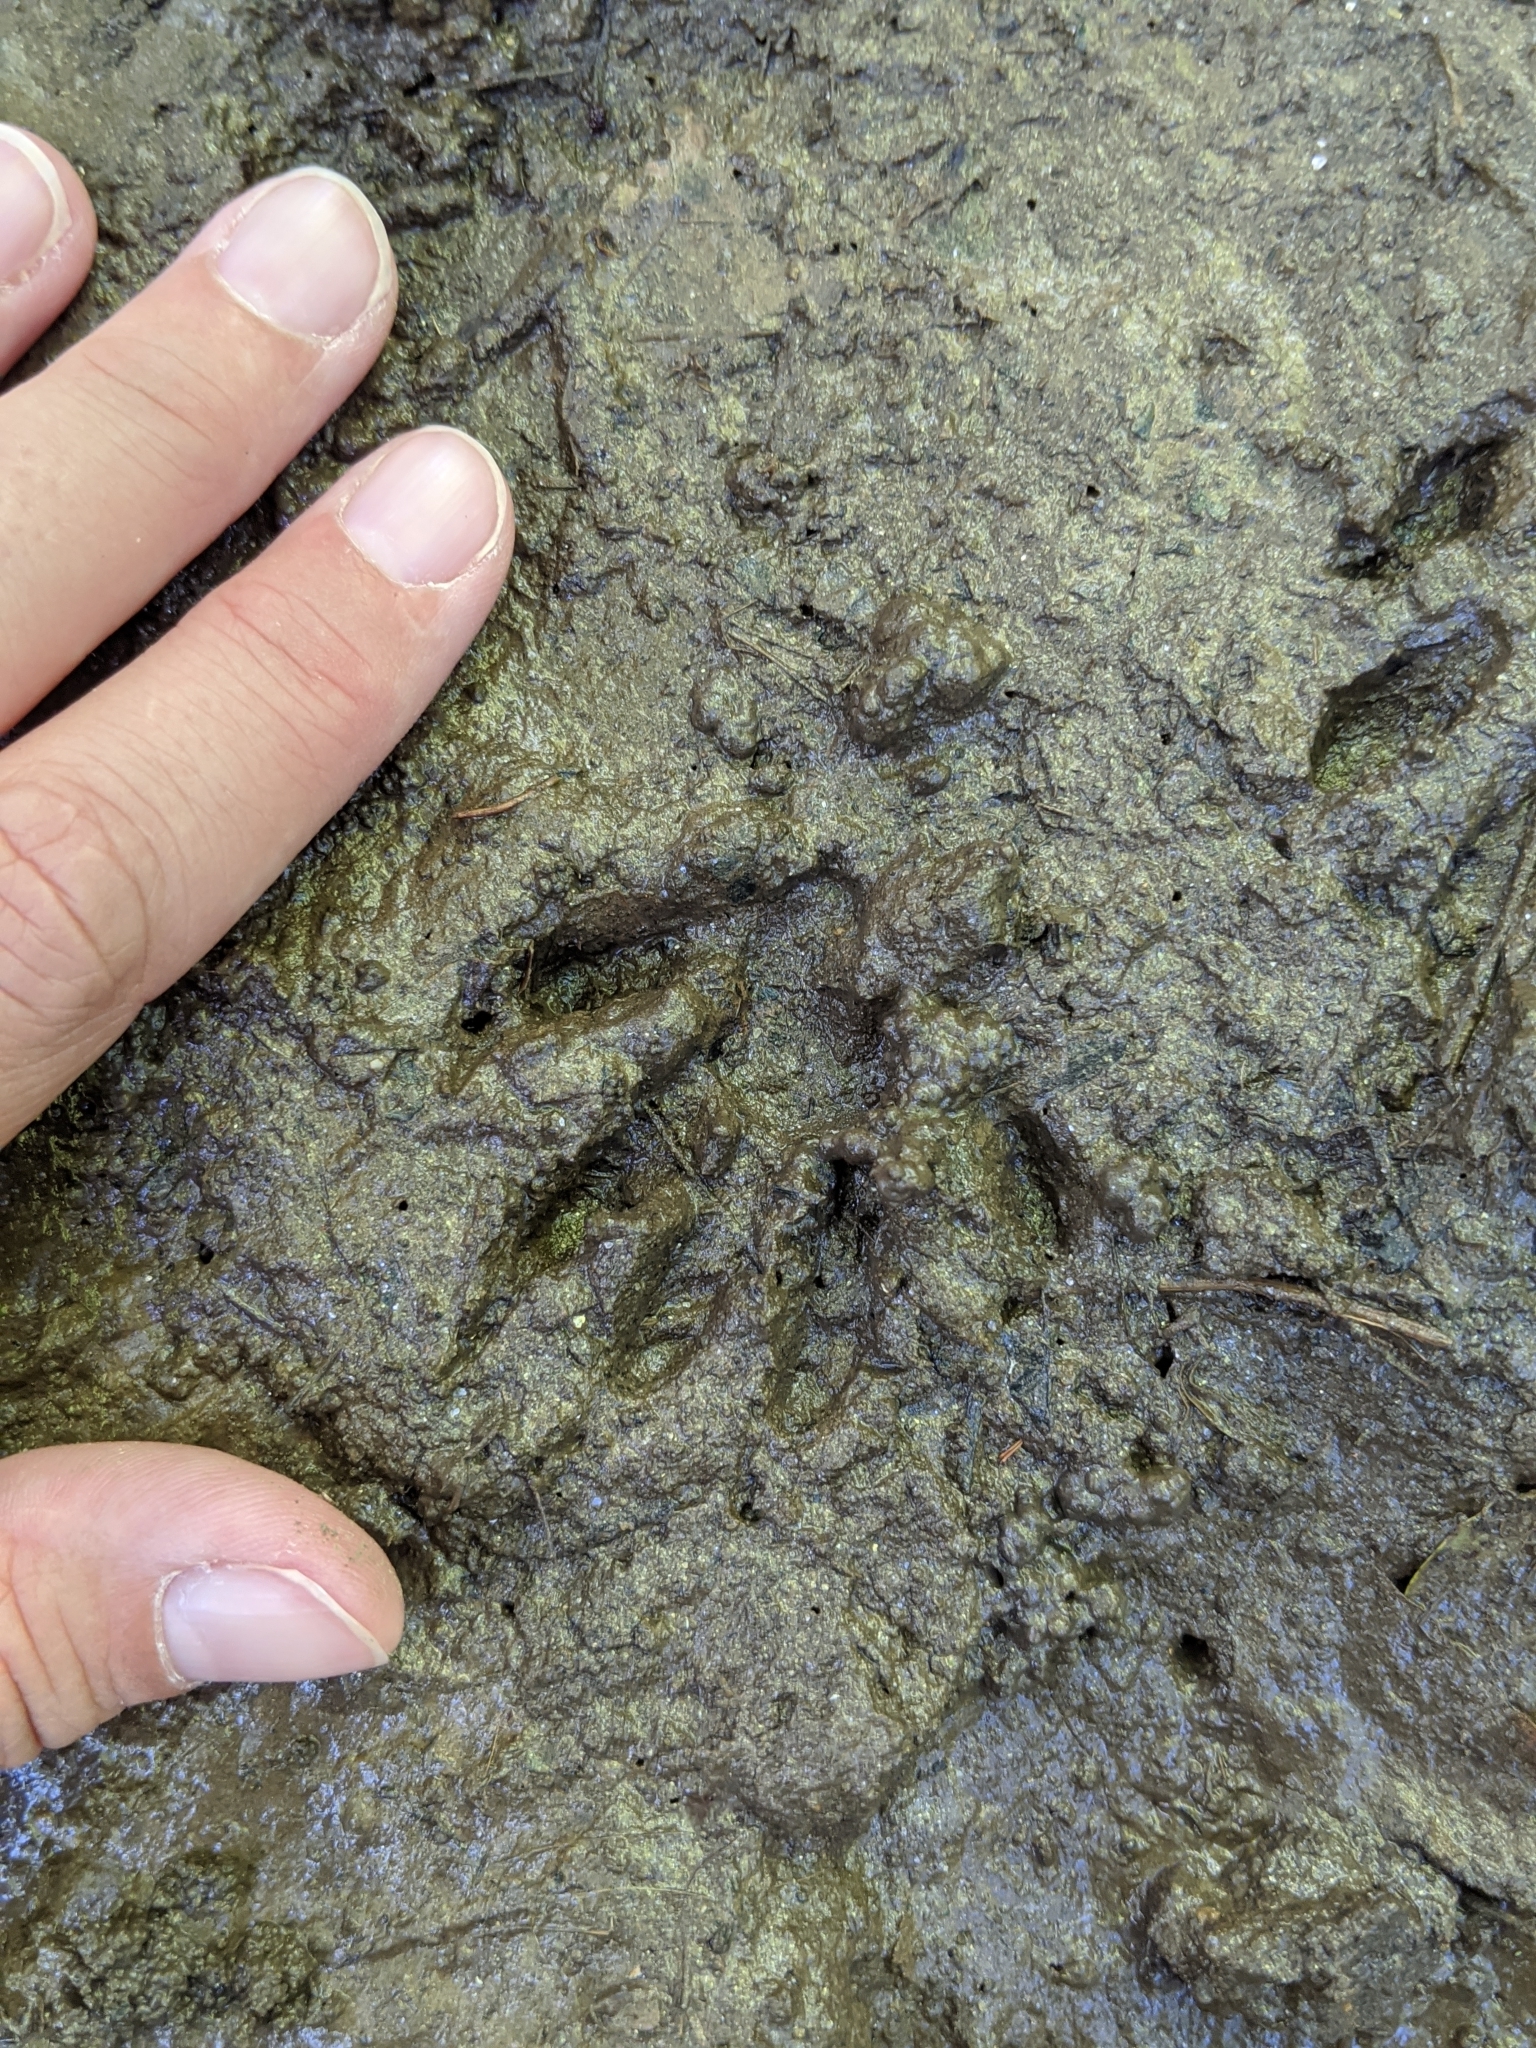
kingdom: Animalia
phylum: Chordata
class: Mammalia
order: Carnivora
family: Procyonidae
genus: Procyon
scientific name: Procyon lotor
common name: Raccoon
